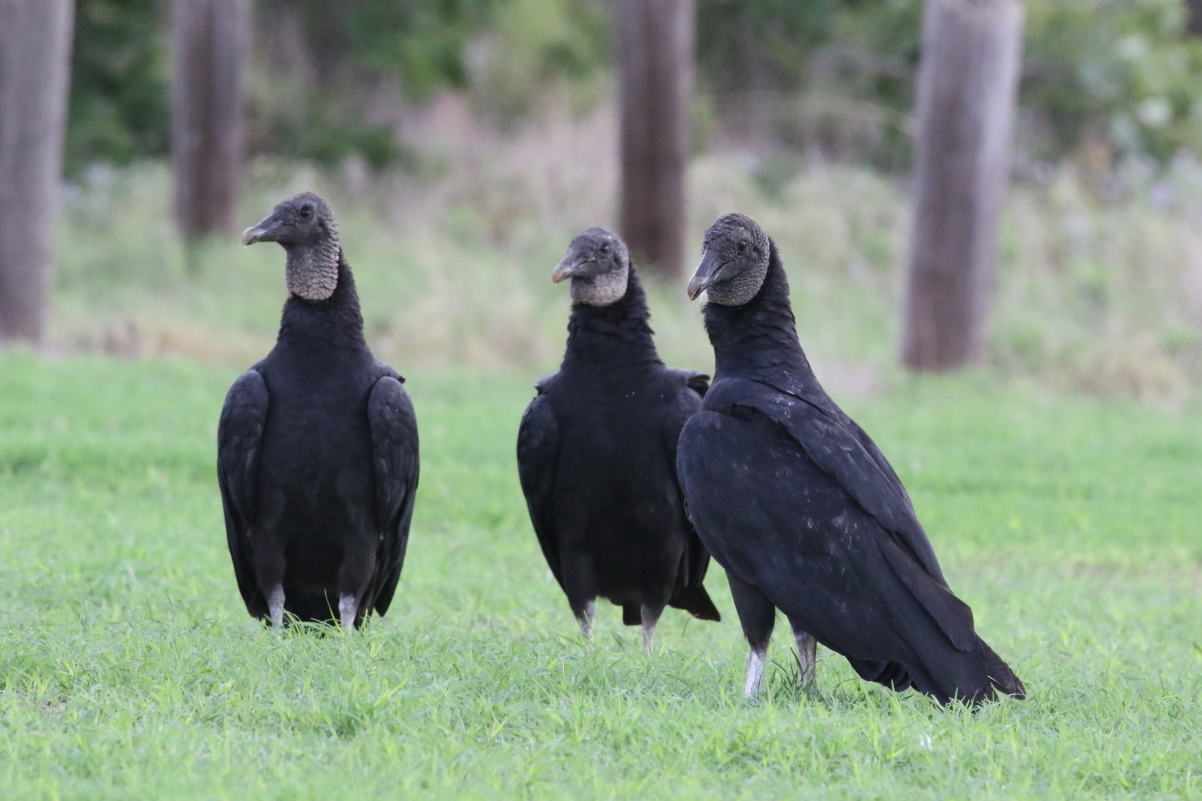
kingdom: Animalia
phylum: Chordata
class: Aves
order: Accipitriformes
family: Cathartidae
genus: Coragyps
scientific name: Coragyps atratus
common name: Black vulture
